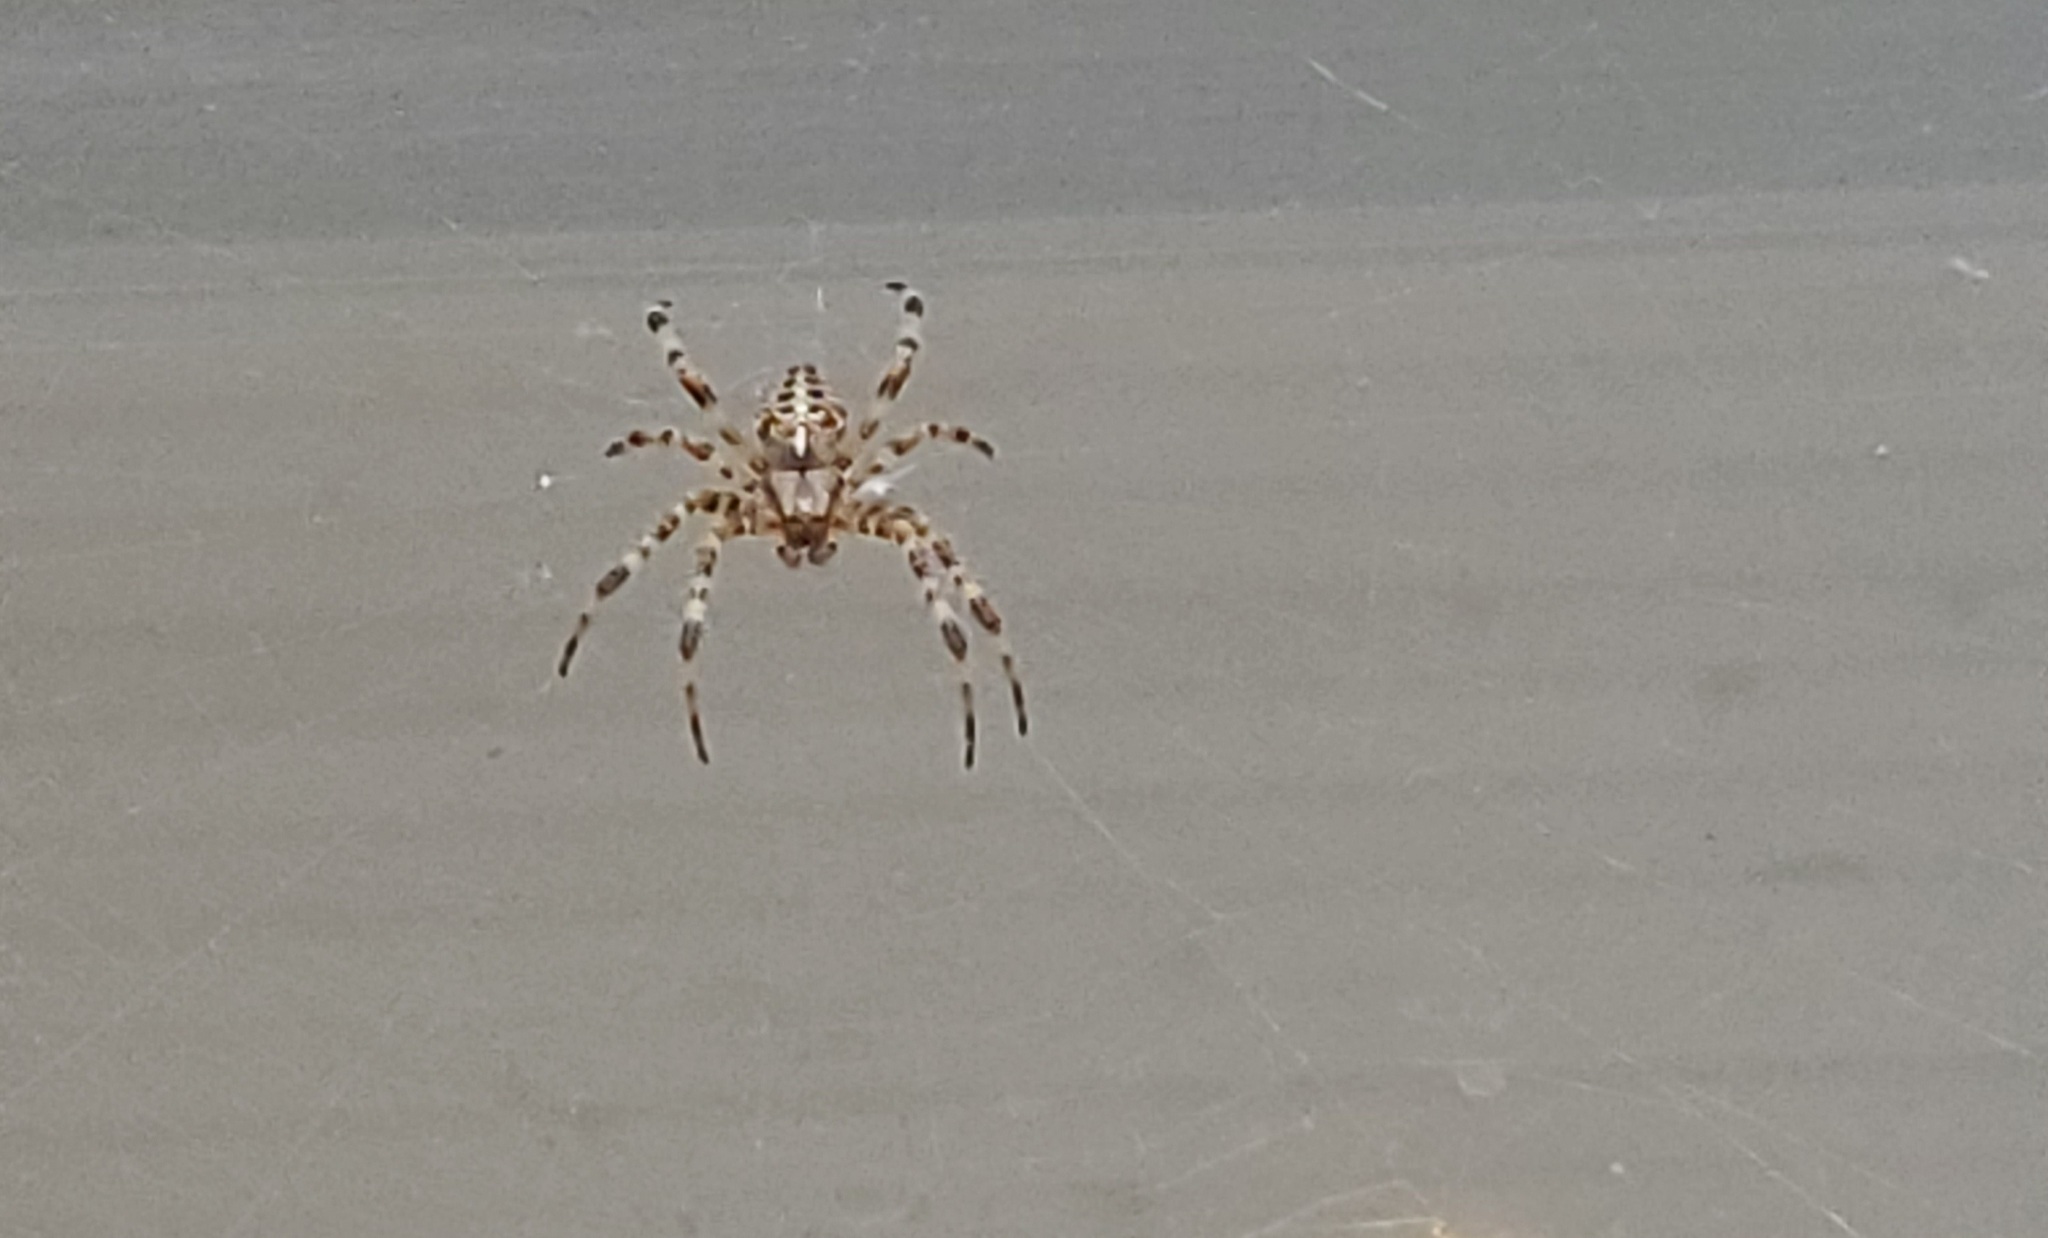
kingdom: Animalia
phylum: Arthropoda
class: Arachnida
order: Araneae
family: Araneidae
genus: Araneus
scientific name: Araneus diadematus
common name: Cross orbweaver
